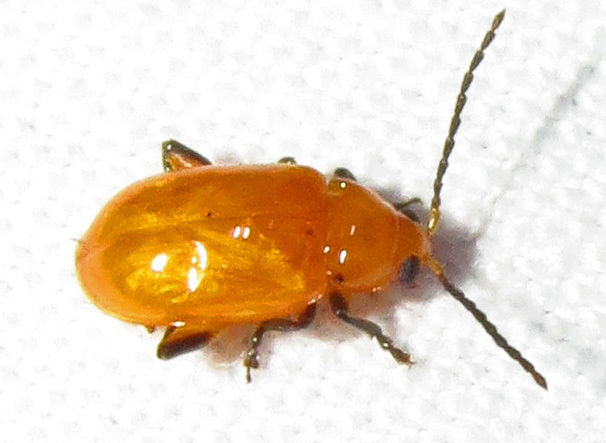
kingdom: Animalia
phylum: Arthropoda
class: Insecta
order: Coleoptera
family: Chrysomelidae
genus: Parchicola
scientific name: Parchicola tibialis
